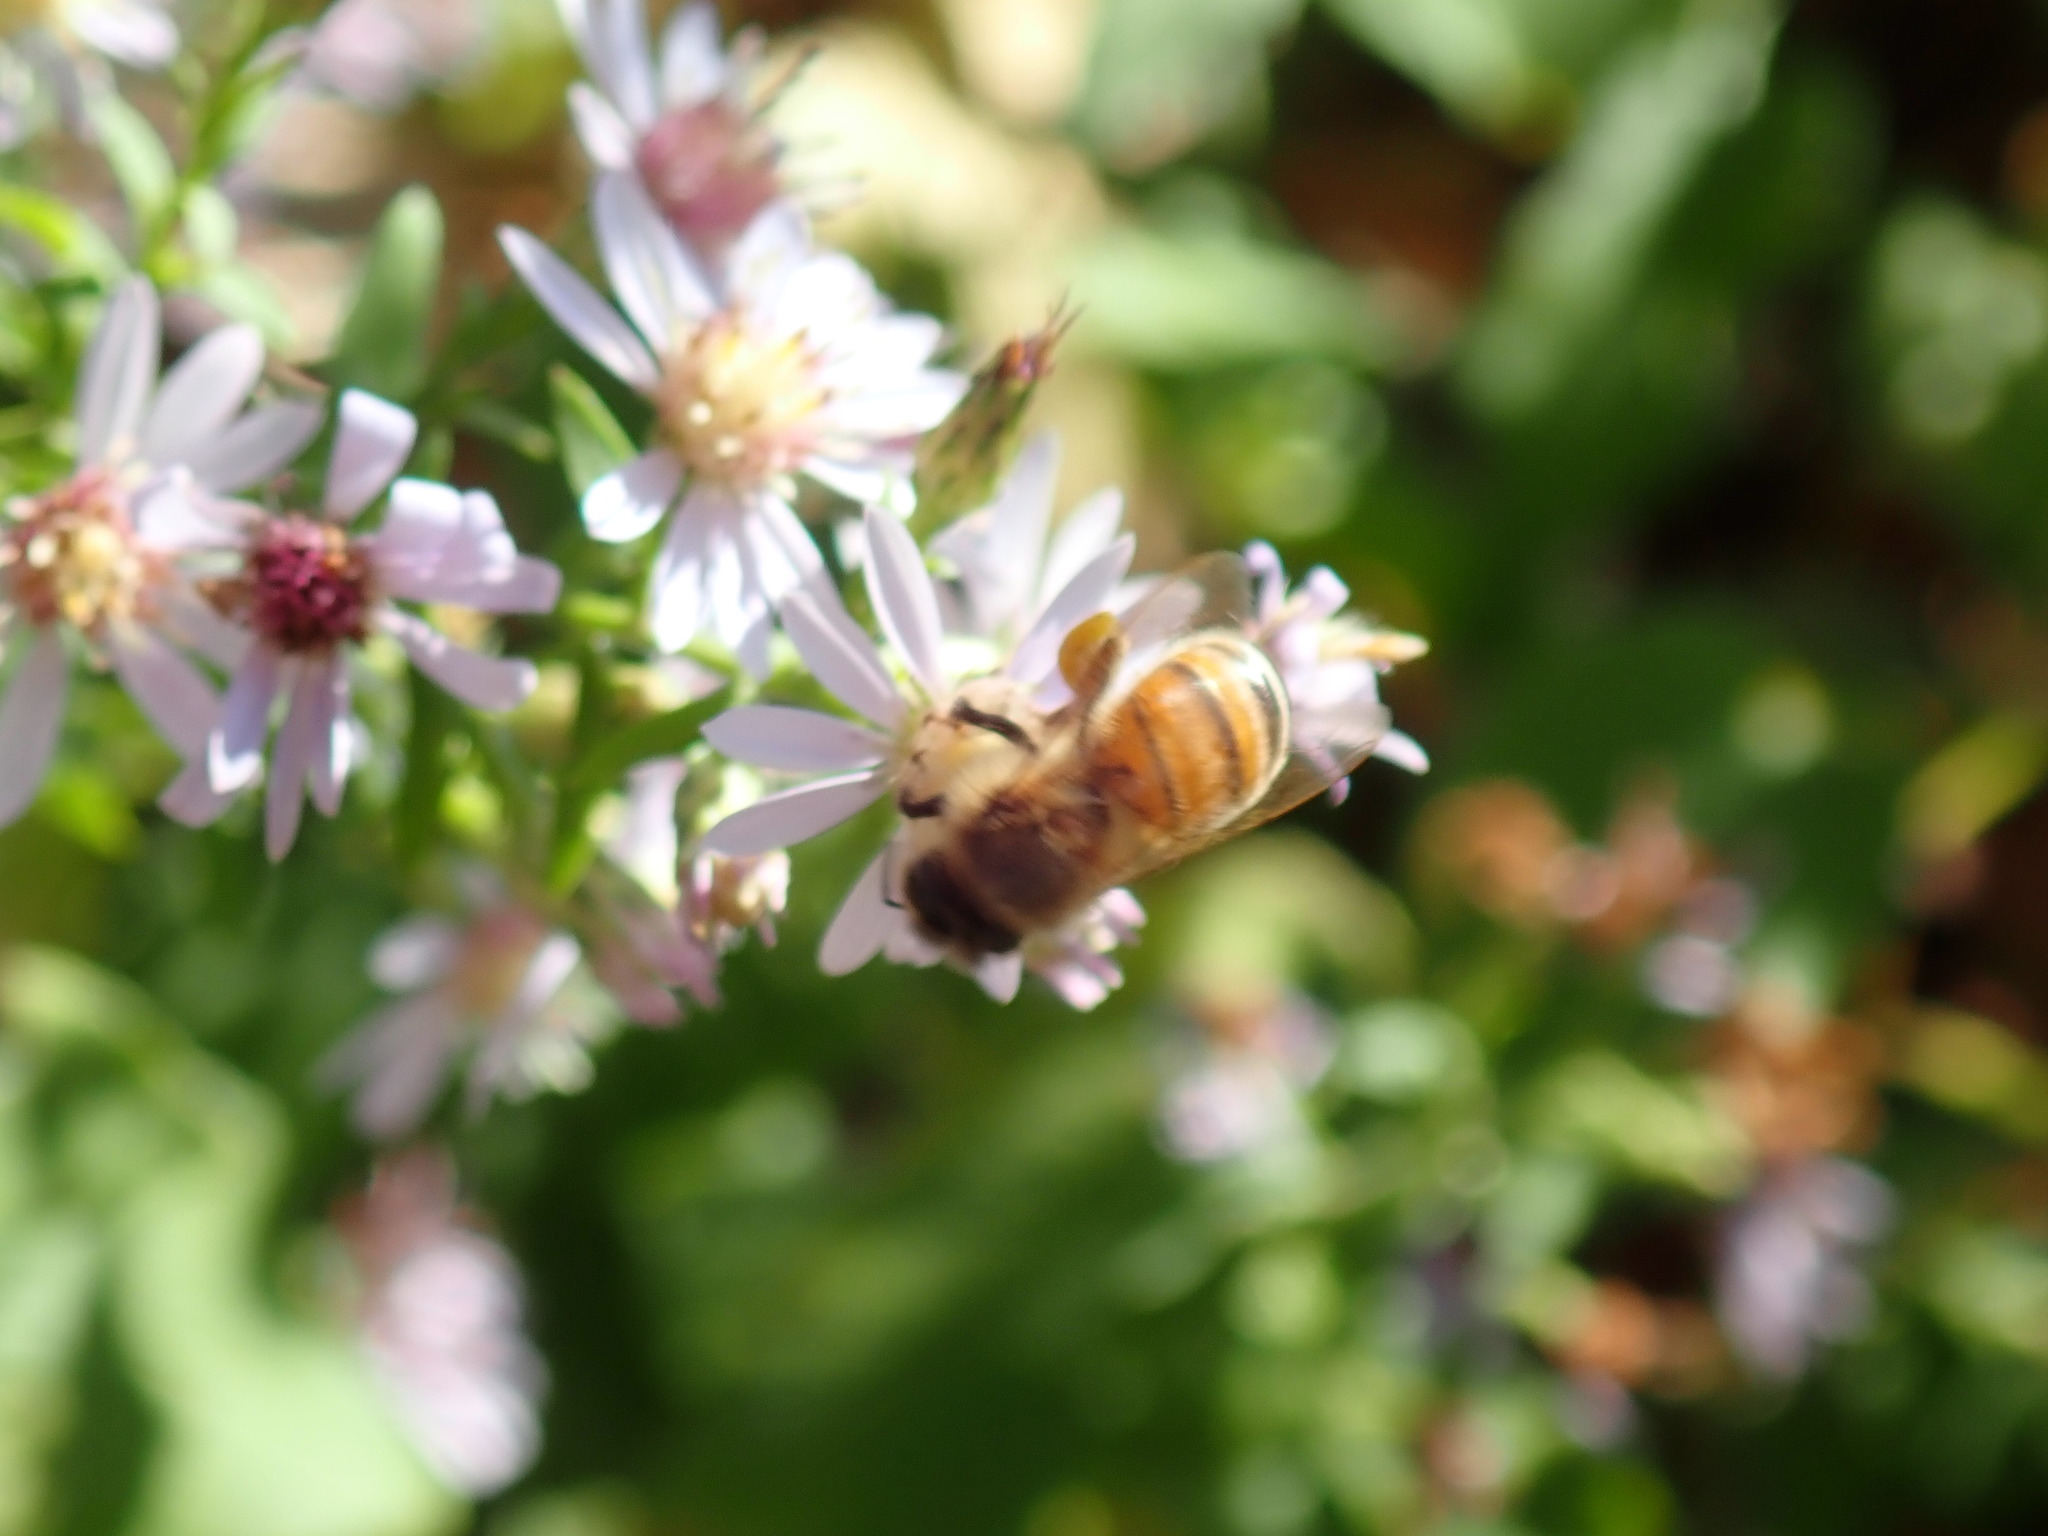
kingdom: Animalia
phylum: Arthropoda
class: Insecta
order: Hymenoptera
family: Apidae
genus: Apis
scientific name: Apis mellifera
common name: Honey bee
